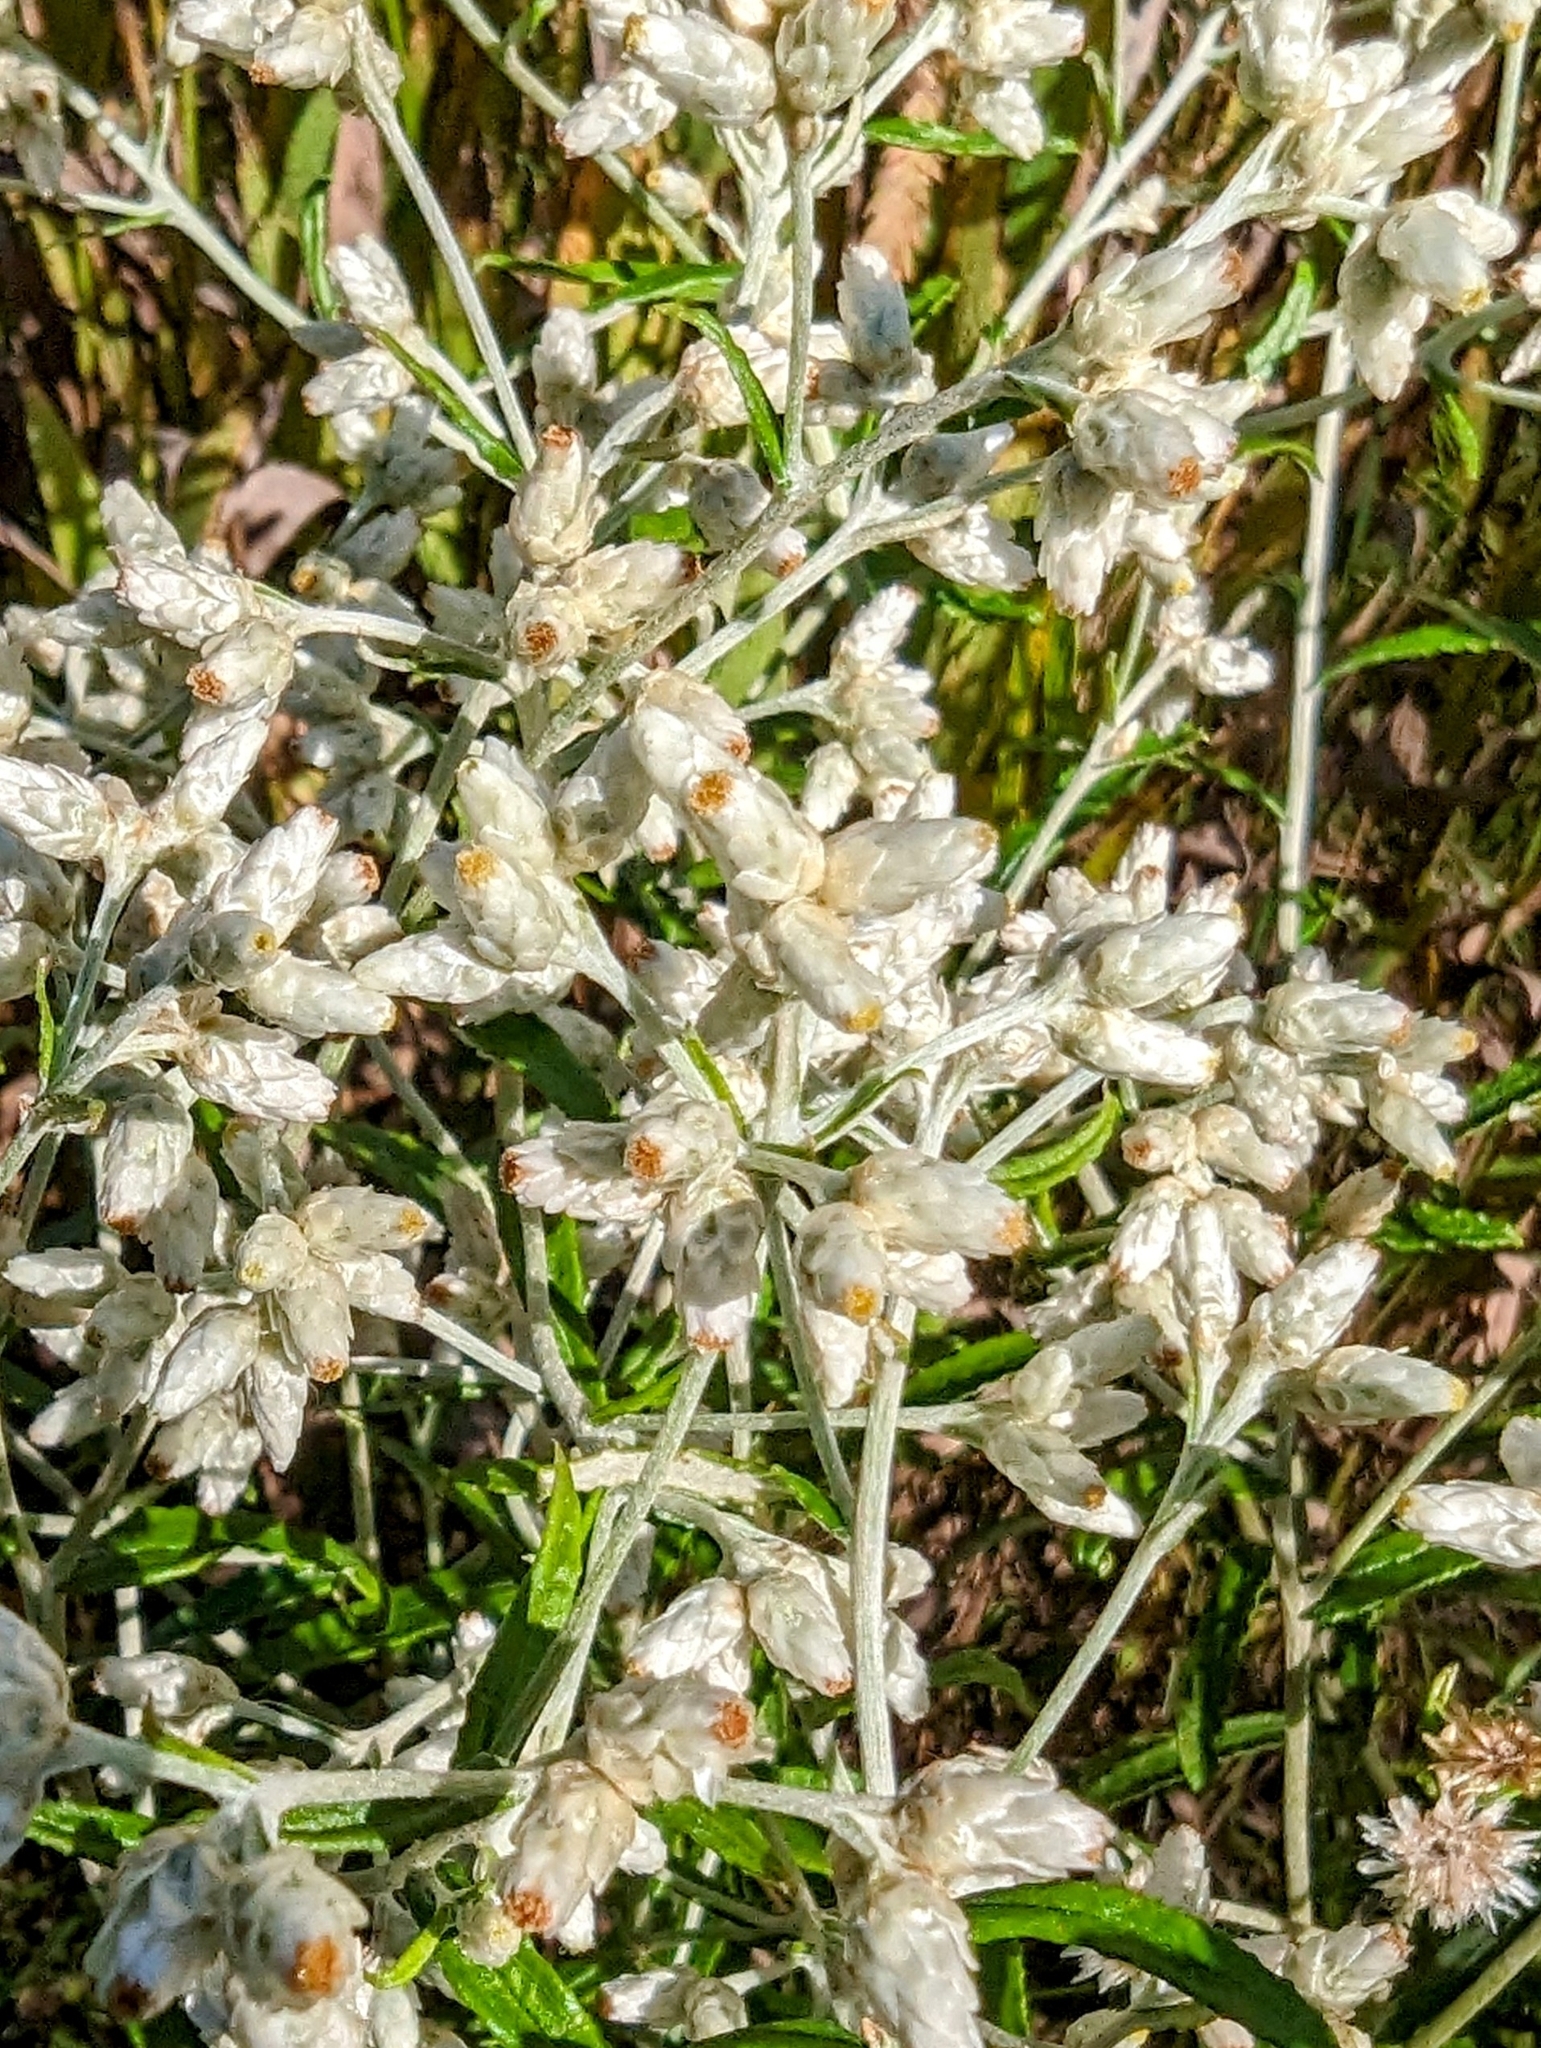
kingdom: Plantae
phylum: Tracheophyta
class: Magnoliopsida
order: Asterales
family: Asteraceae
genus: Pseudognaphalium
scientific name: Pseudognaphalium obtusifolium
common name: Eastern rabbit-tobacco
